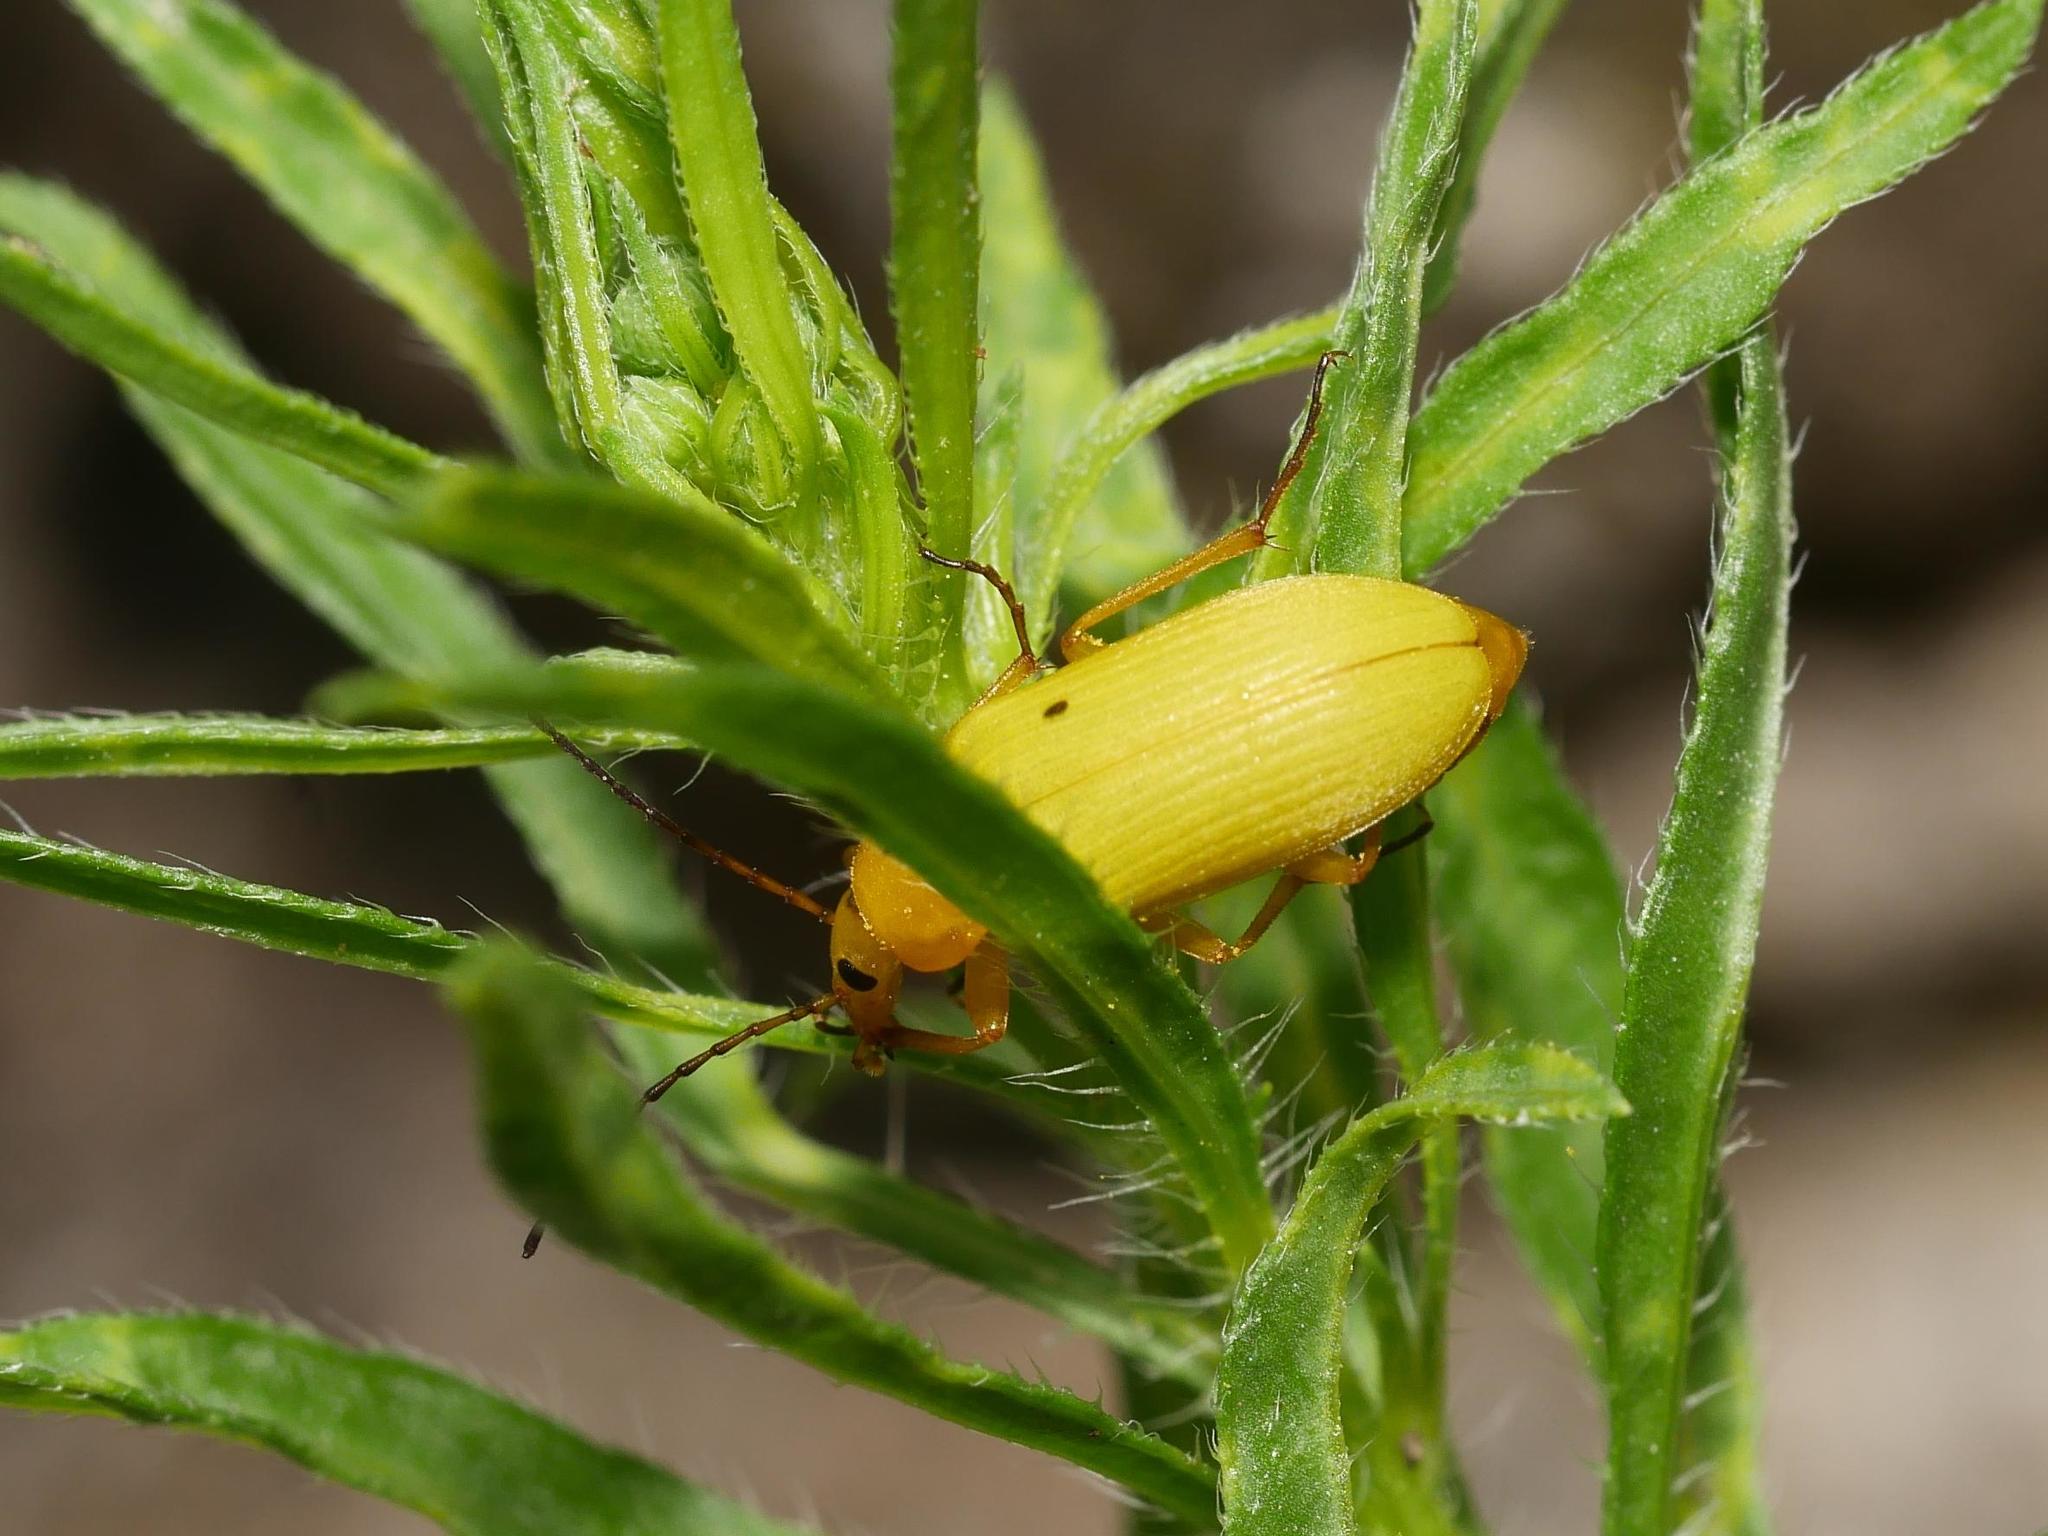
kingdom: Animalia
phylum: Arthropoda
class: Insecta
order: Coleoptera
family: Tenebrionidae
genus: Cteniopus
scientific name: Cteniopus sulphureus
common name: Sulphur beetle
